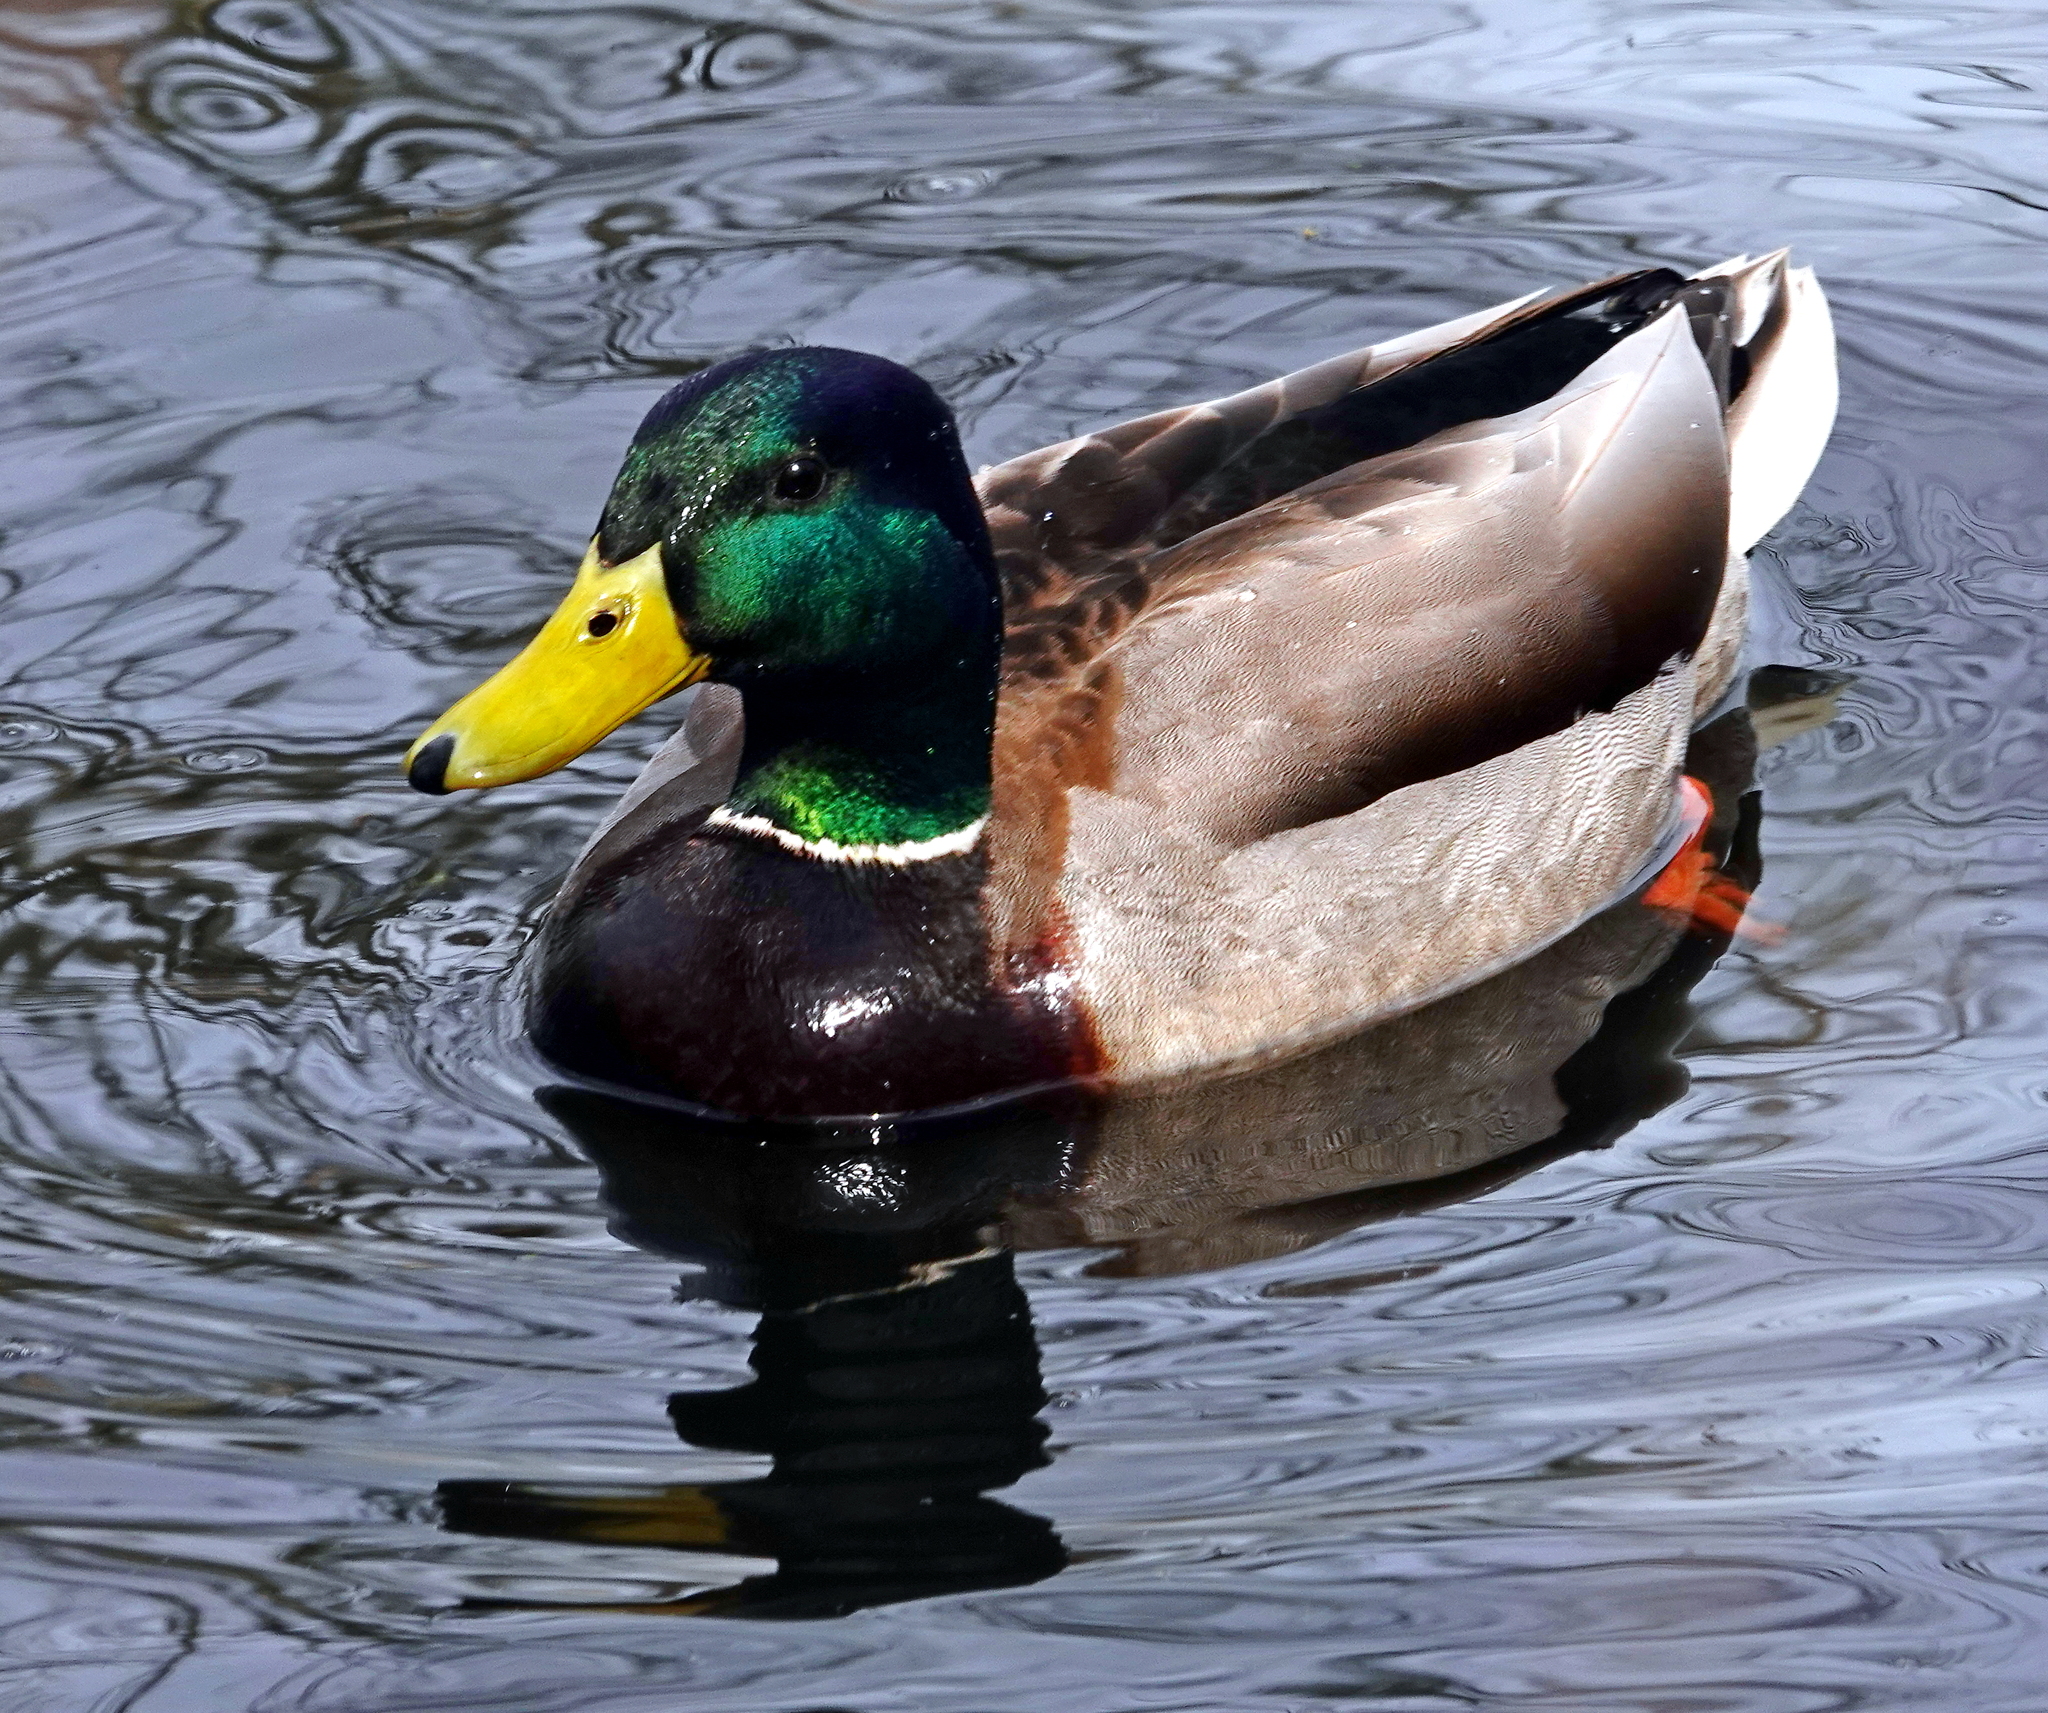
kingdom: Animalia
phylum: Chordata
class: Aves
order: Anseriformes
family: Anatidae
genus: Anas
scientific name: Anas platyrhynchos
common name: Mallard
